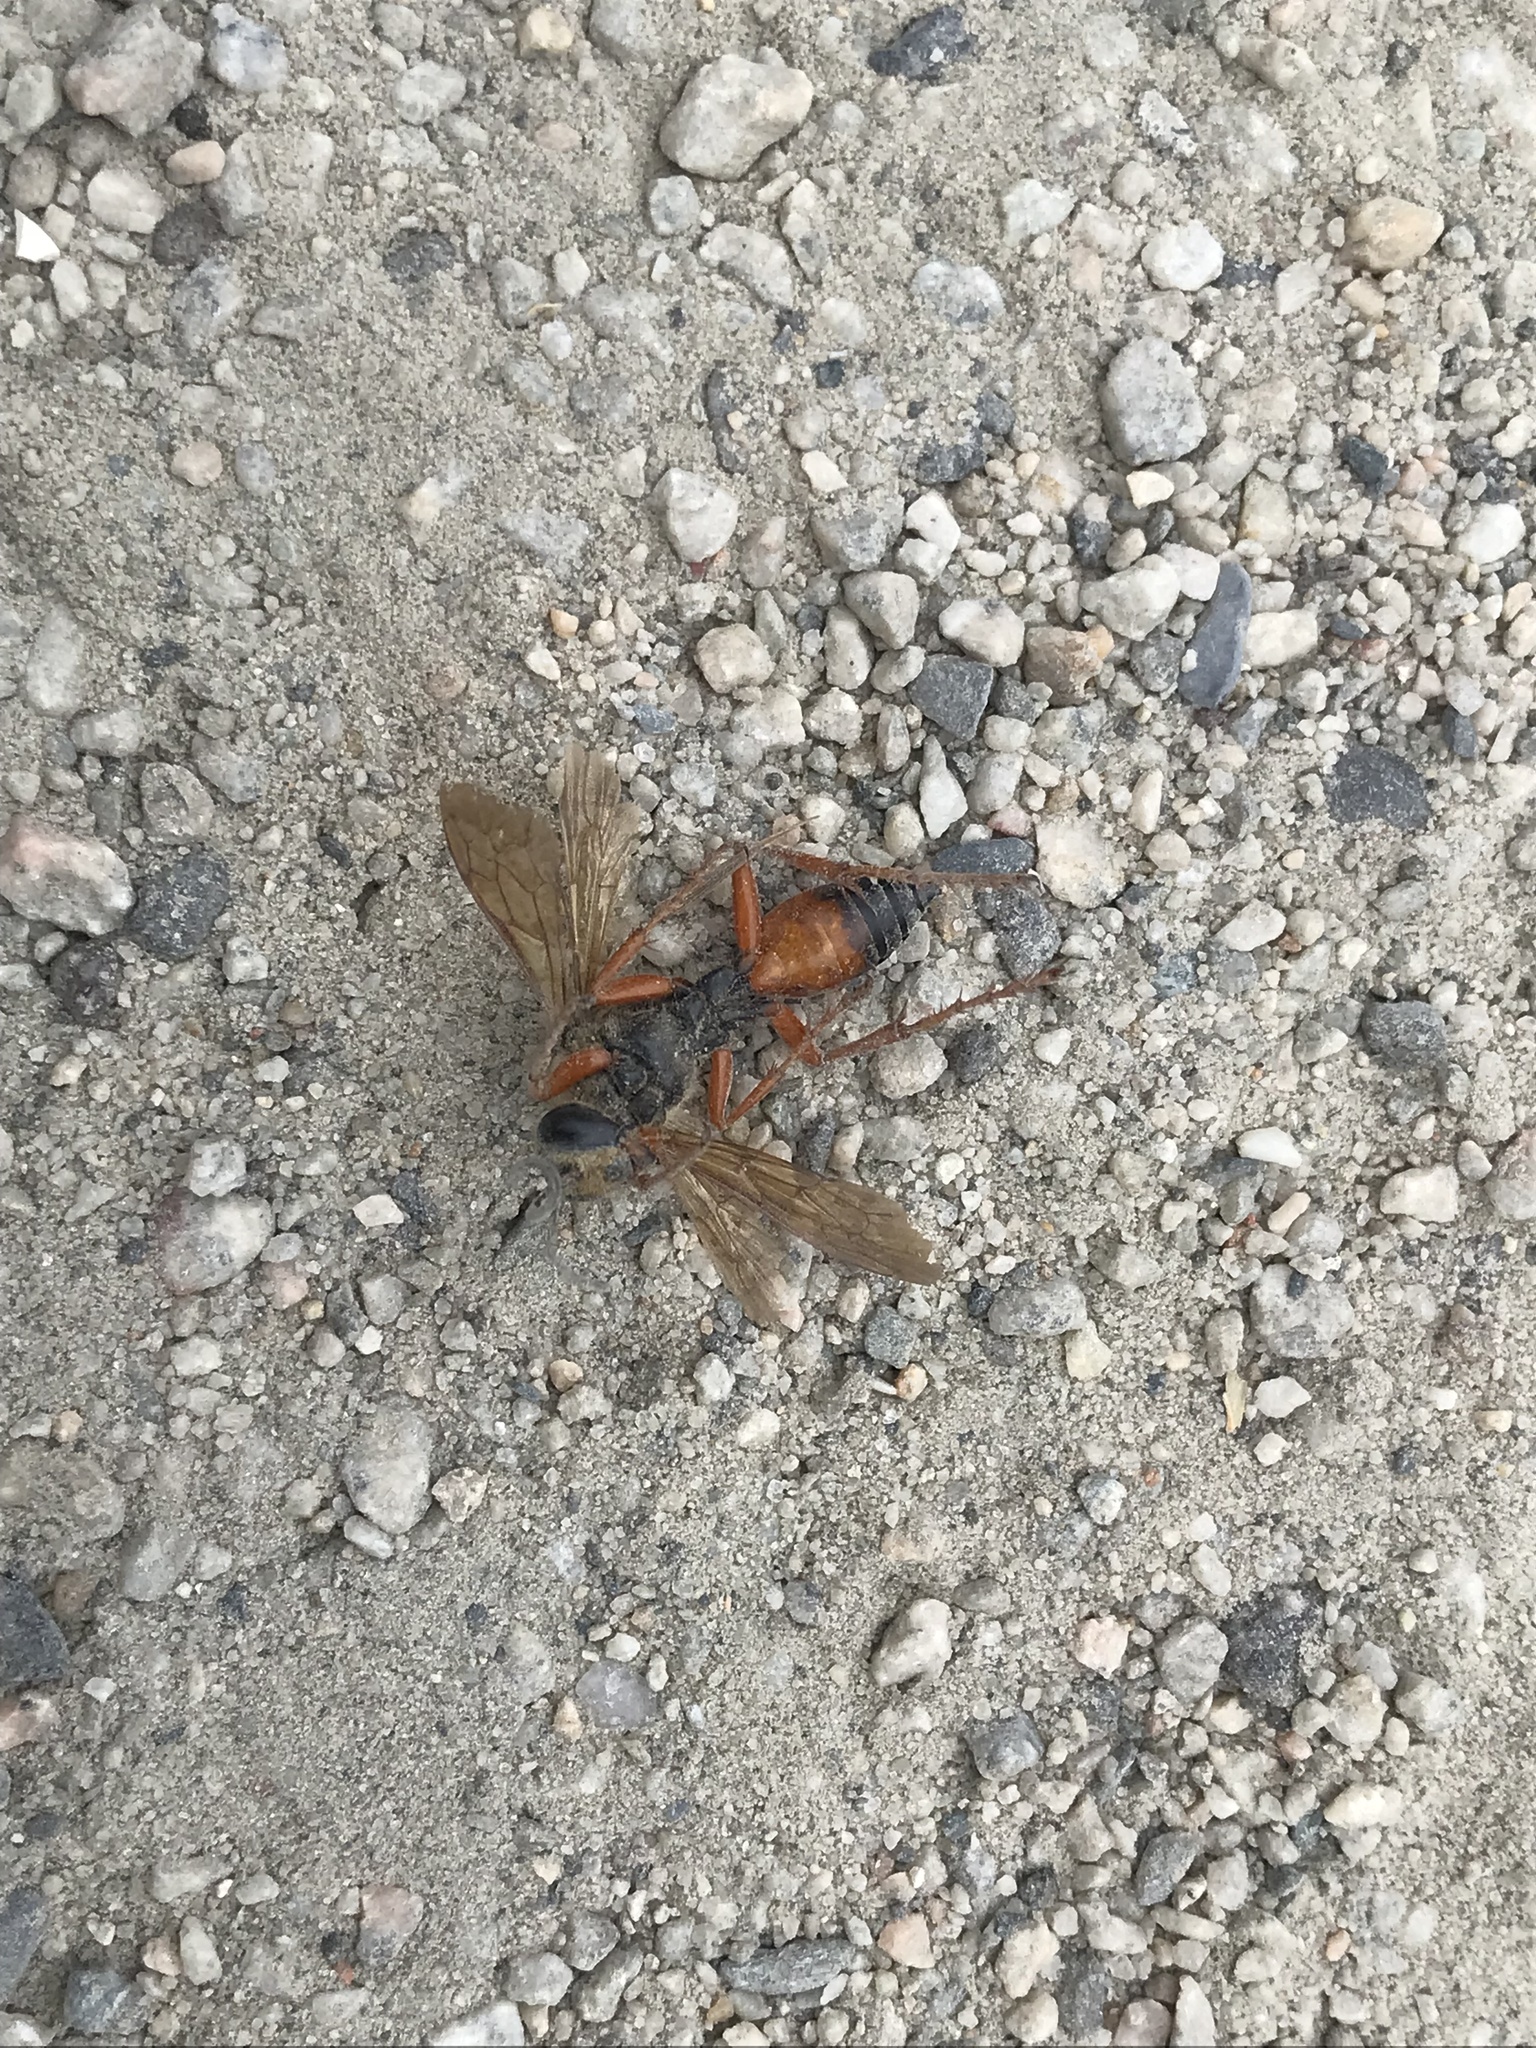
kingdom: Animalia
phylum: Arthropoda
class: Insecta
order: Hymenoptera
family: Sphecidae
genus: Sphex
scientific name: Sphex ichneumoneus
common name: Great golden digger wasp
